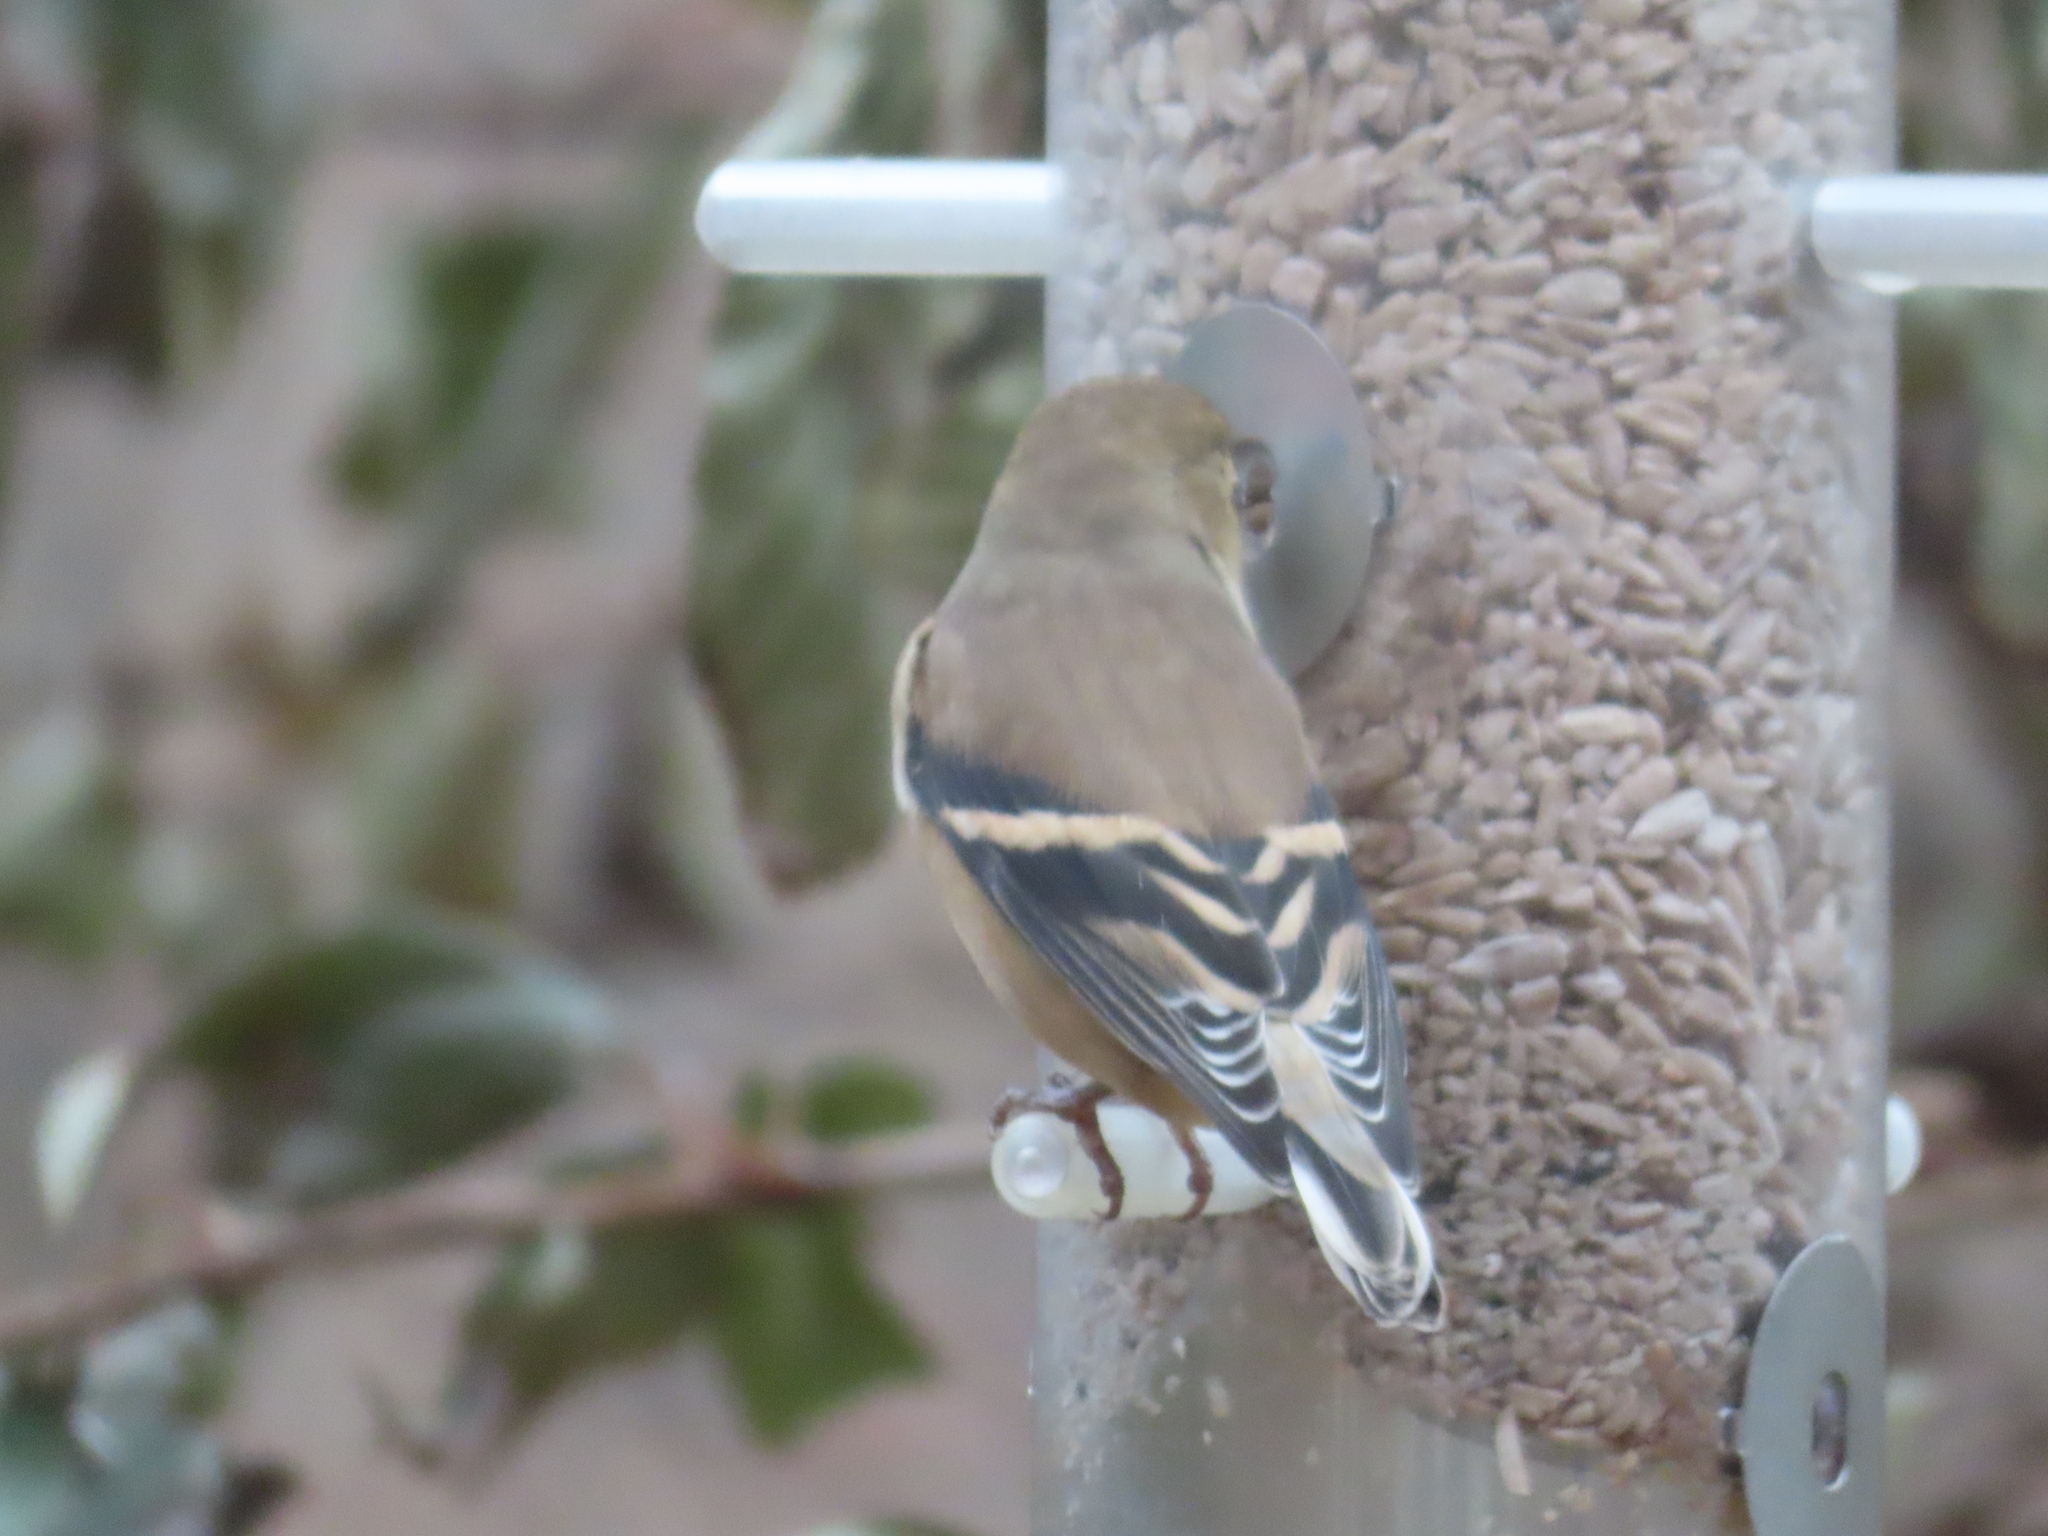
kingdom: Animalia
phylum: Chordata
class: Aves
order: Passeriformes
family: Fringillidae
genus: Spinus
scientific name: Spinus tristis
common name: American goldfinch
